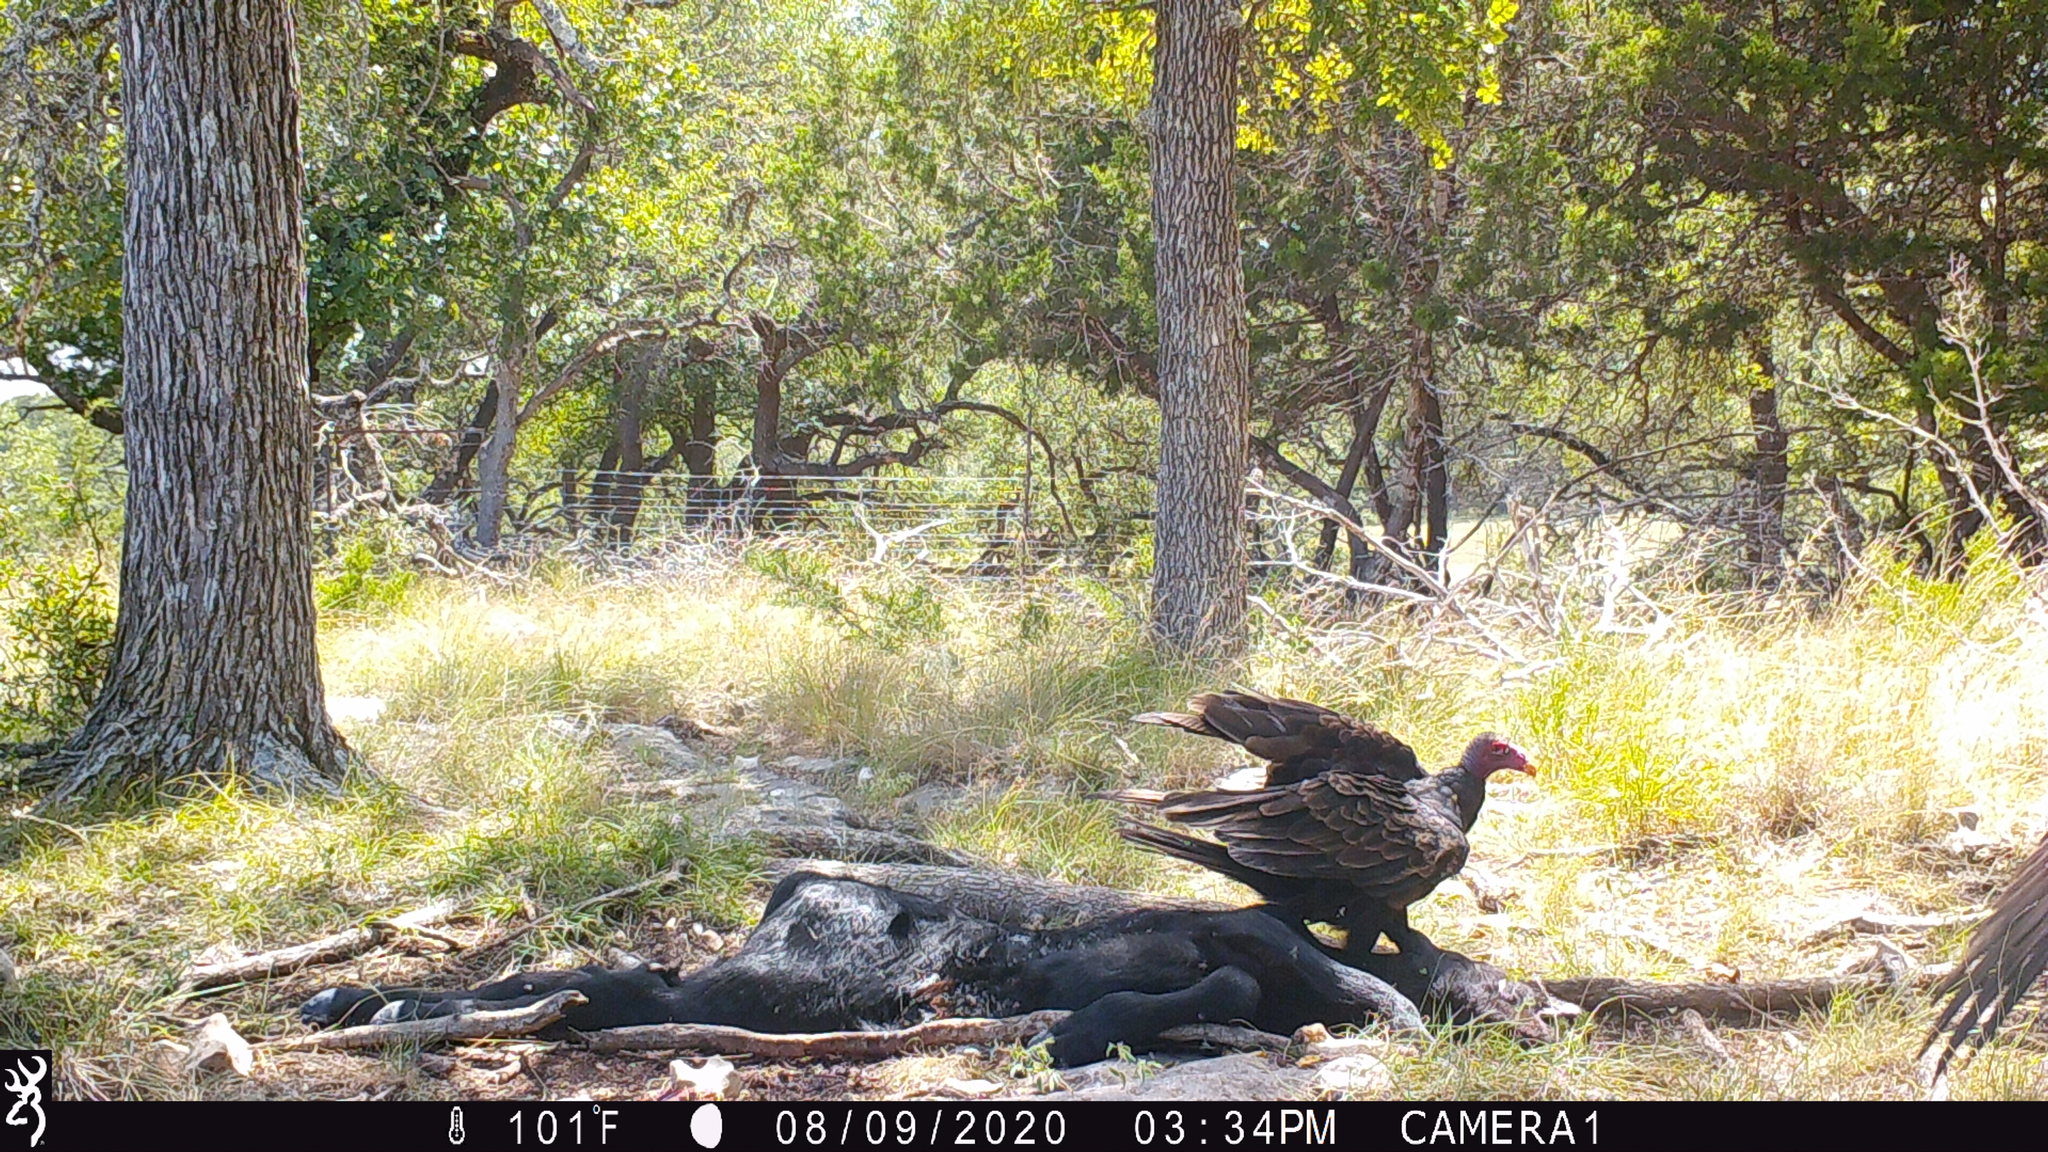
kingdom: Animalia
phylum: Chordata
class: Aves
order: Accipitriformes
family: Cathartidae
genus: Cathartes
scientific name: Cathartes aura
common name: Turkey vulture
